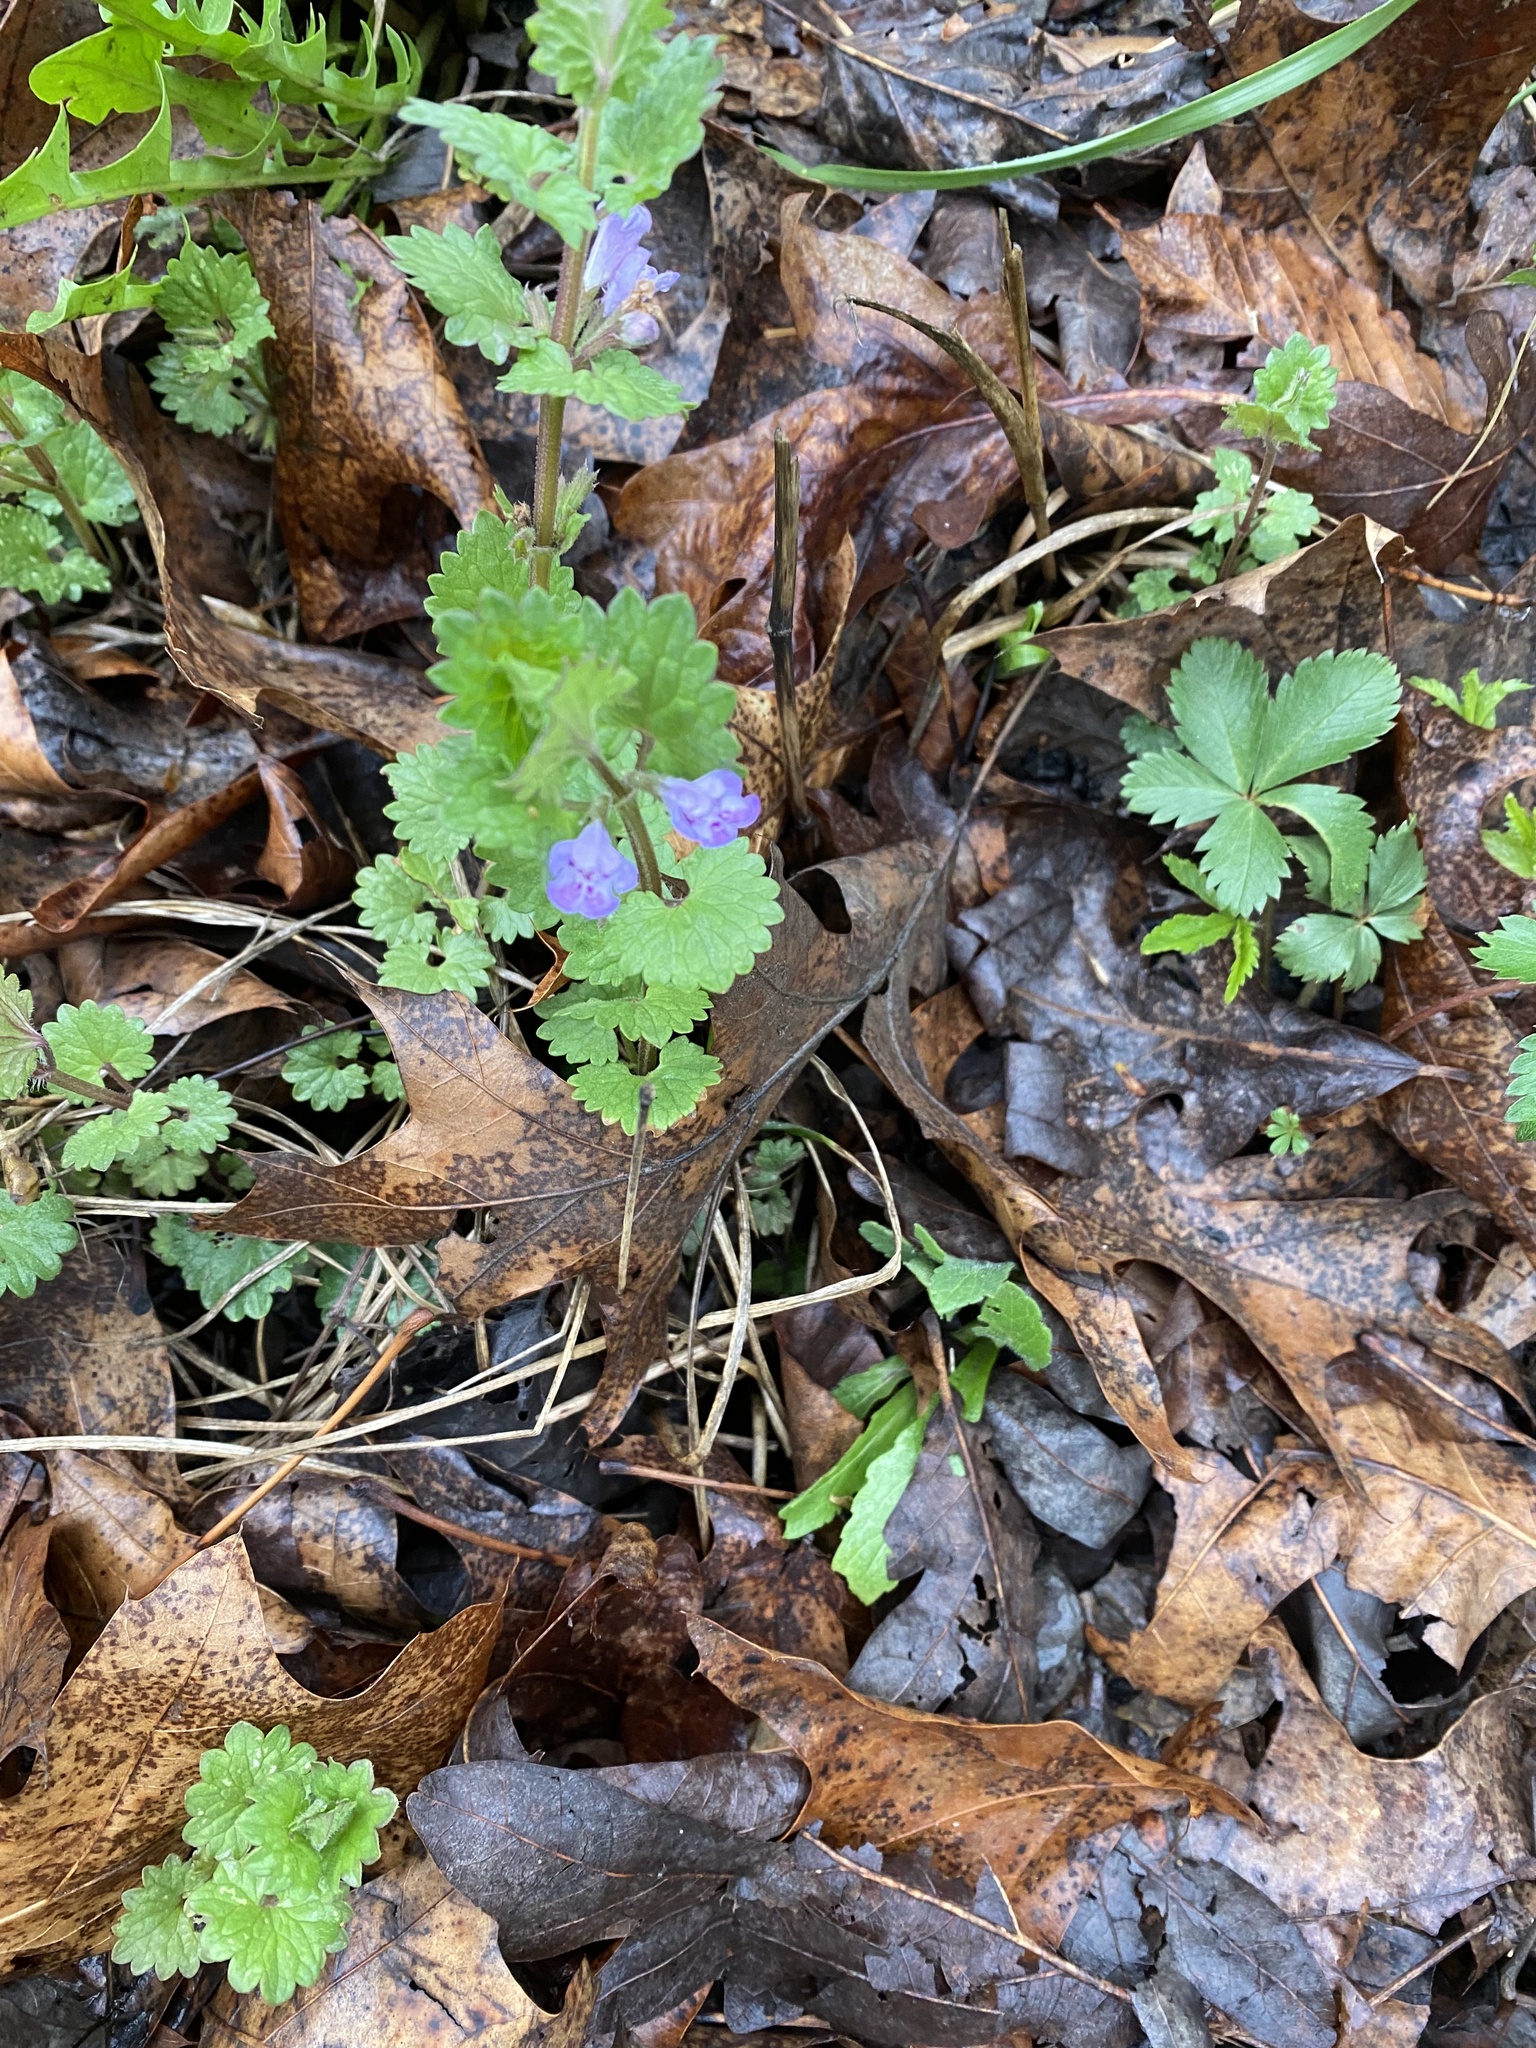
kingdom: Plantae
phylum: Tracheophyta
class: Magnoliopsida
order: Lamiales
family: Lamiaceae
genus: Glechoma
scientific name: Glechoma hederacea
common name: Ground ivy
